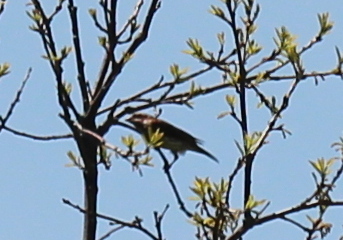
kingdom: Animalia
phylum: Chordata
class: Aves
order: Passeriformes
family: Fringillidae
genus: Haemorhous
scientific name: Haemorhous purpureus
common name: Purple finch
